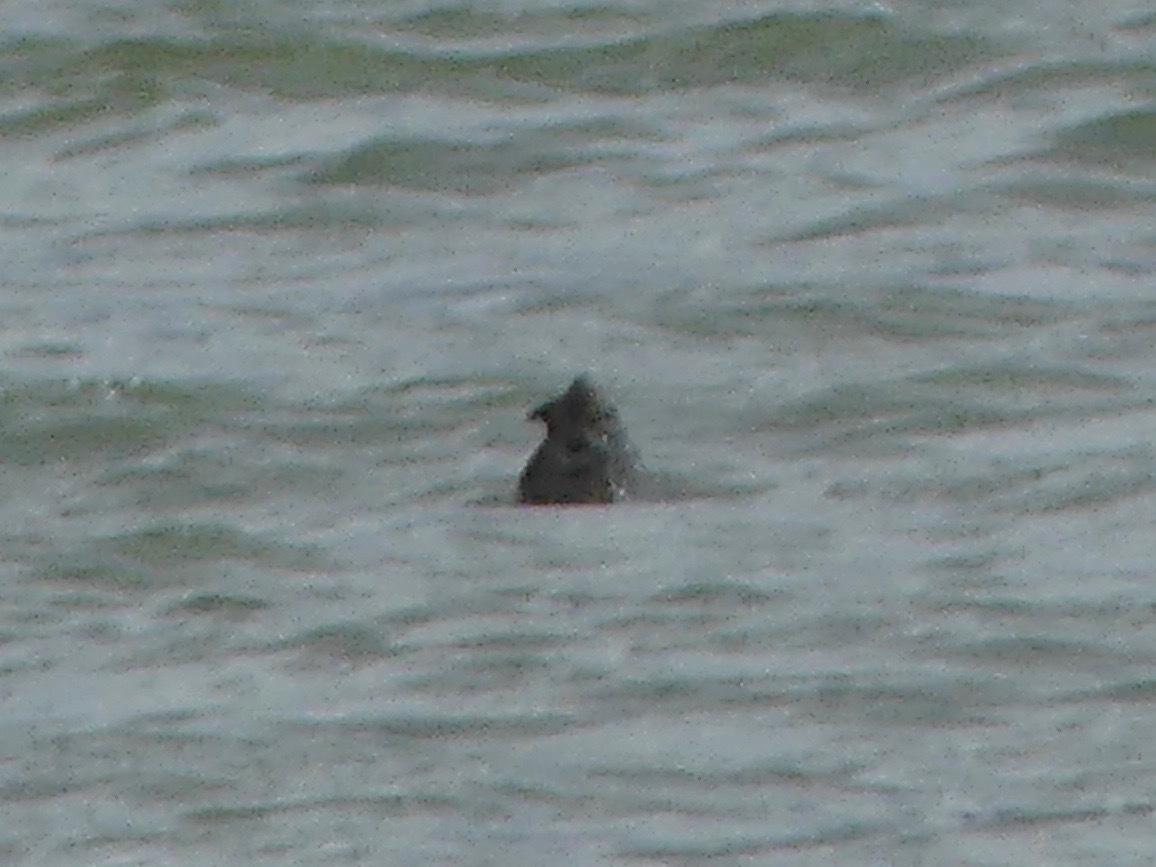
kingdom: Animalia
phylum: Chordata
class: Testudines
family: Chelydridae
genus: Macrochelys
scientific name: Macrochelys temminckii
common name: Alligator snapping turtle
